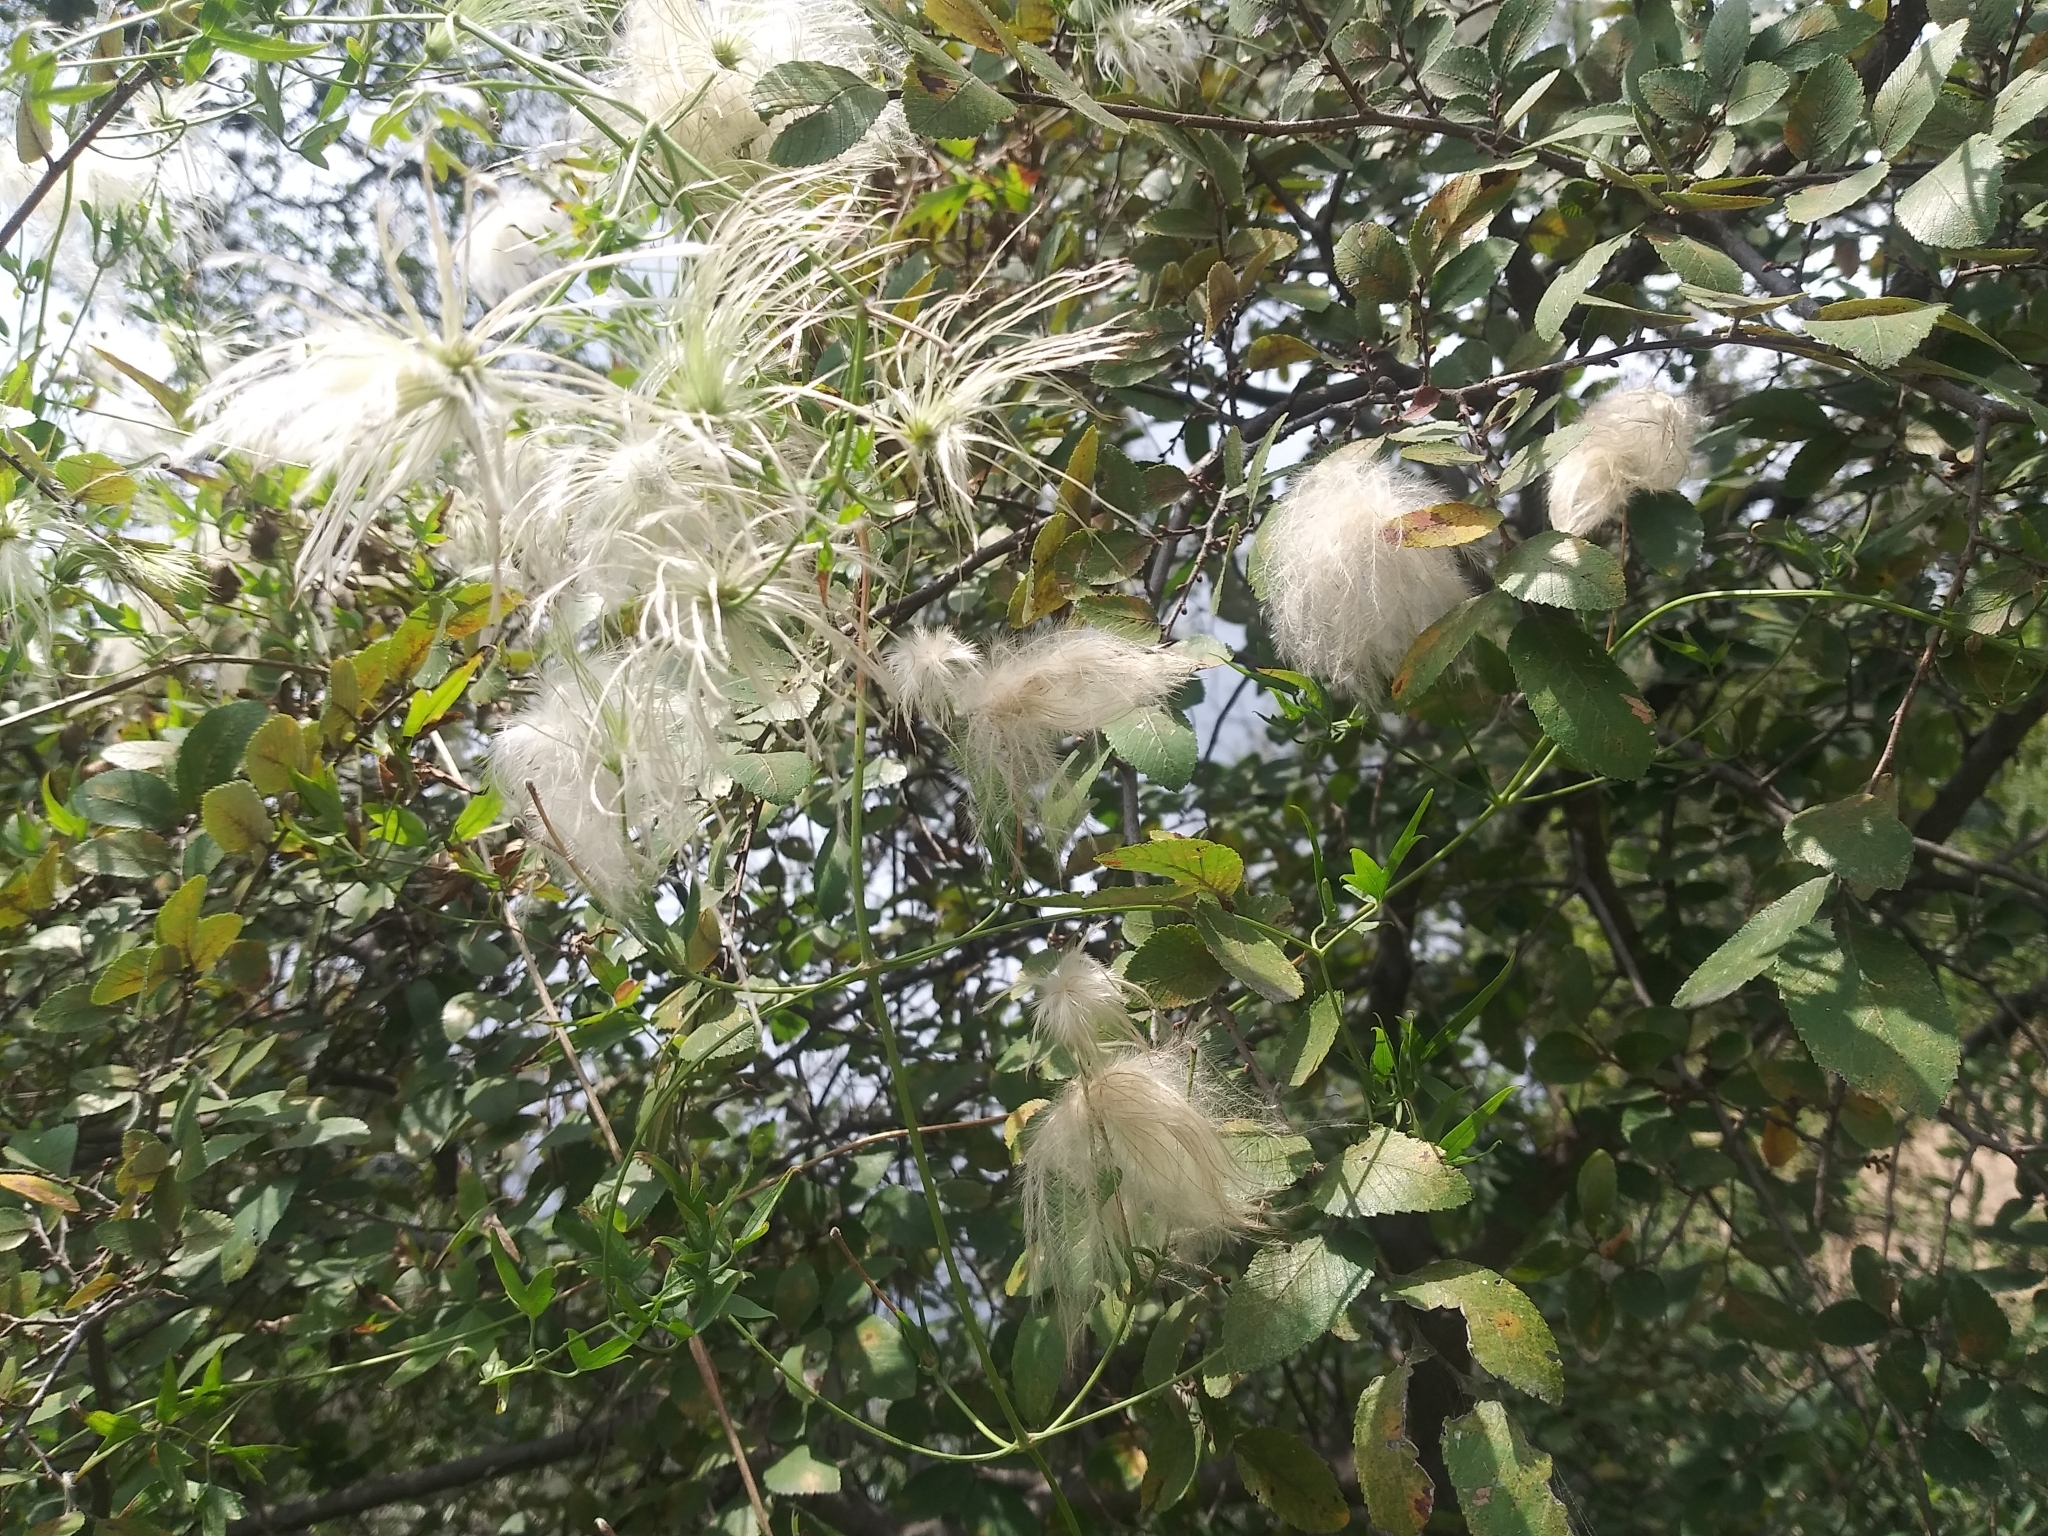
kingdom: Plantae
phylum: Tracheophyta
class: Magnoliopsida
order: Ranunculales
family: Ranunculaceae
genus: Clematis
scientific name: Clematis drummondii
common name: Texas virgin's bower
